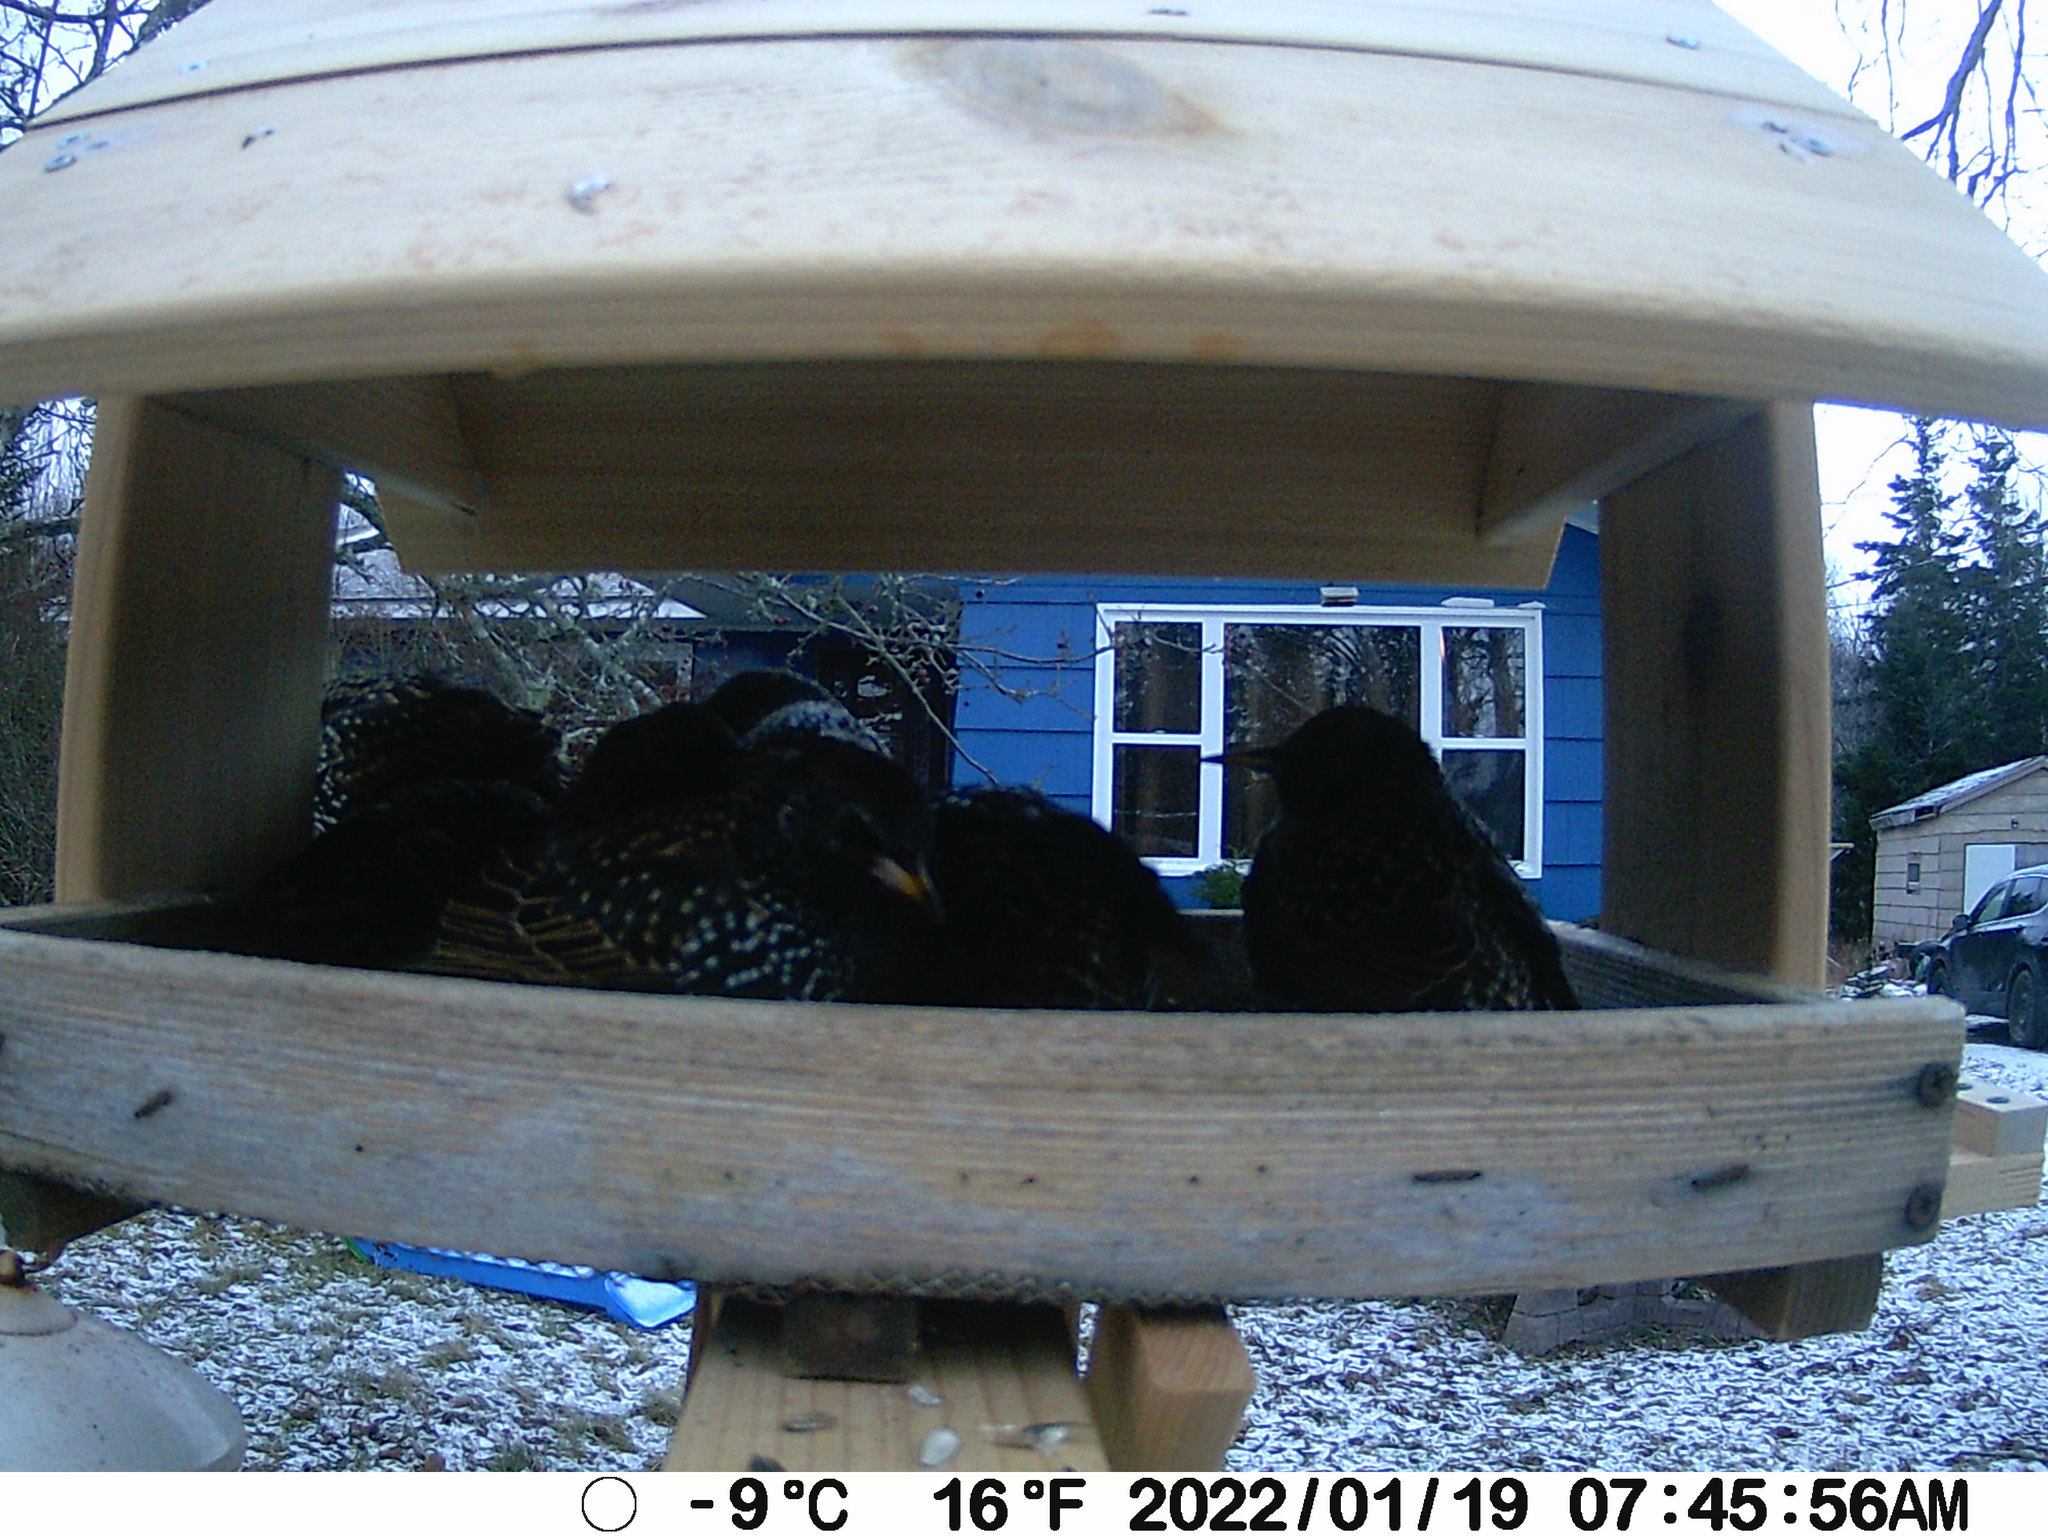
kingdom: Animalia
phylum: Chordata
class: Aves
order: Passeriformes
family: Sturnidae
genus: Sturnus
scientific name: Sturnus vulgaris
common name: Common starling
